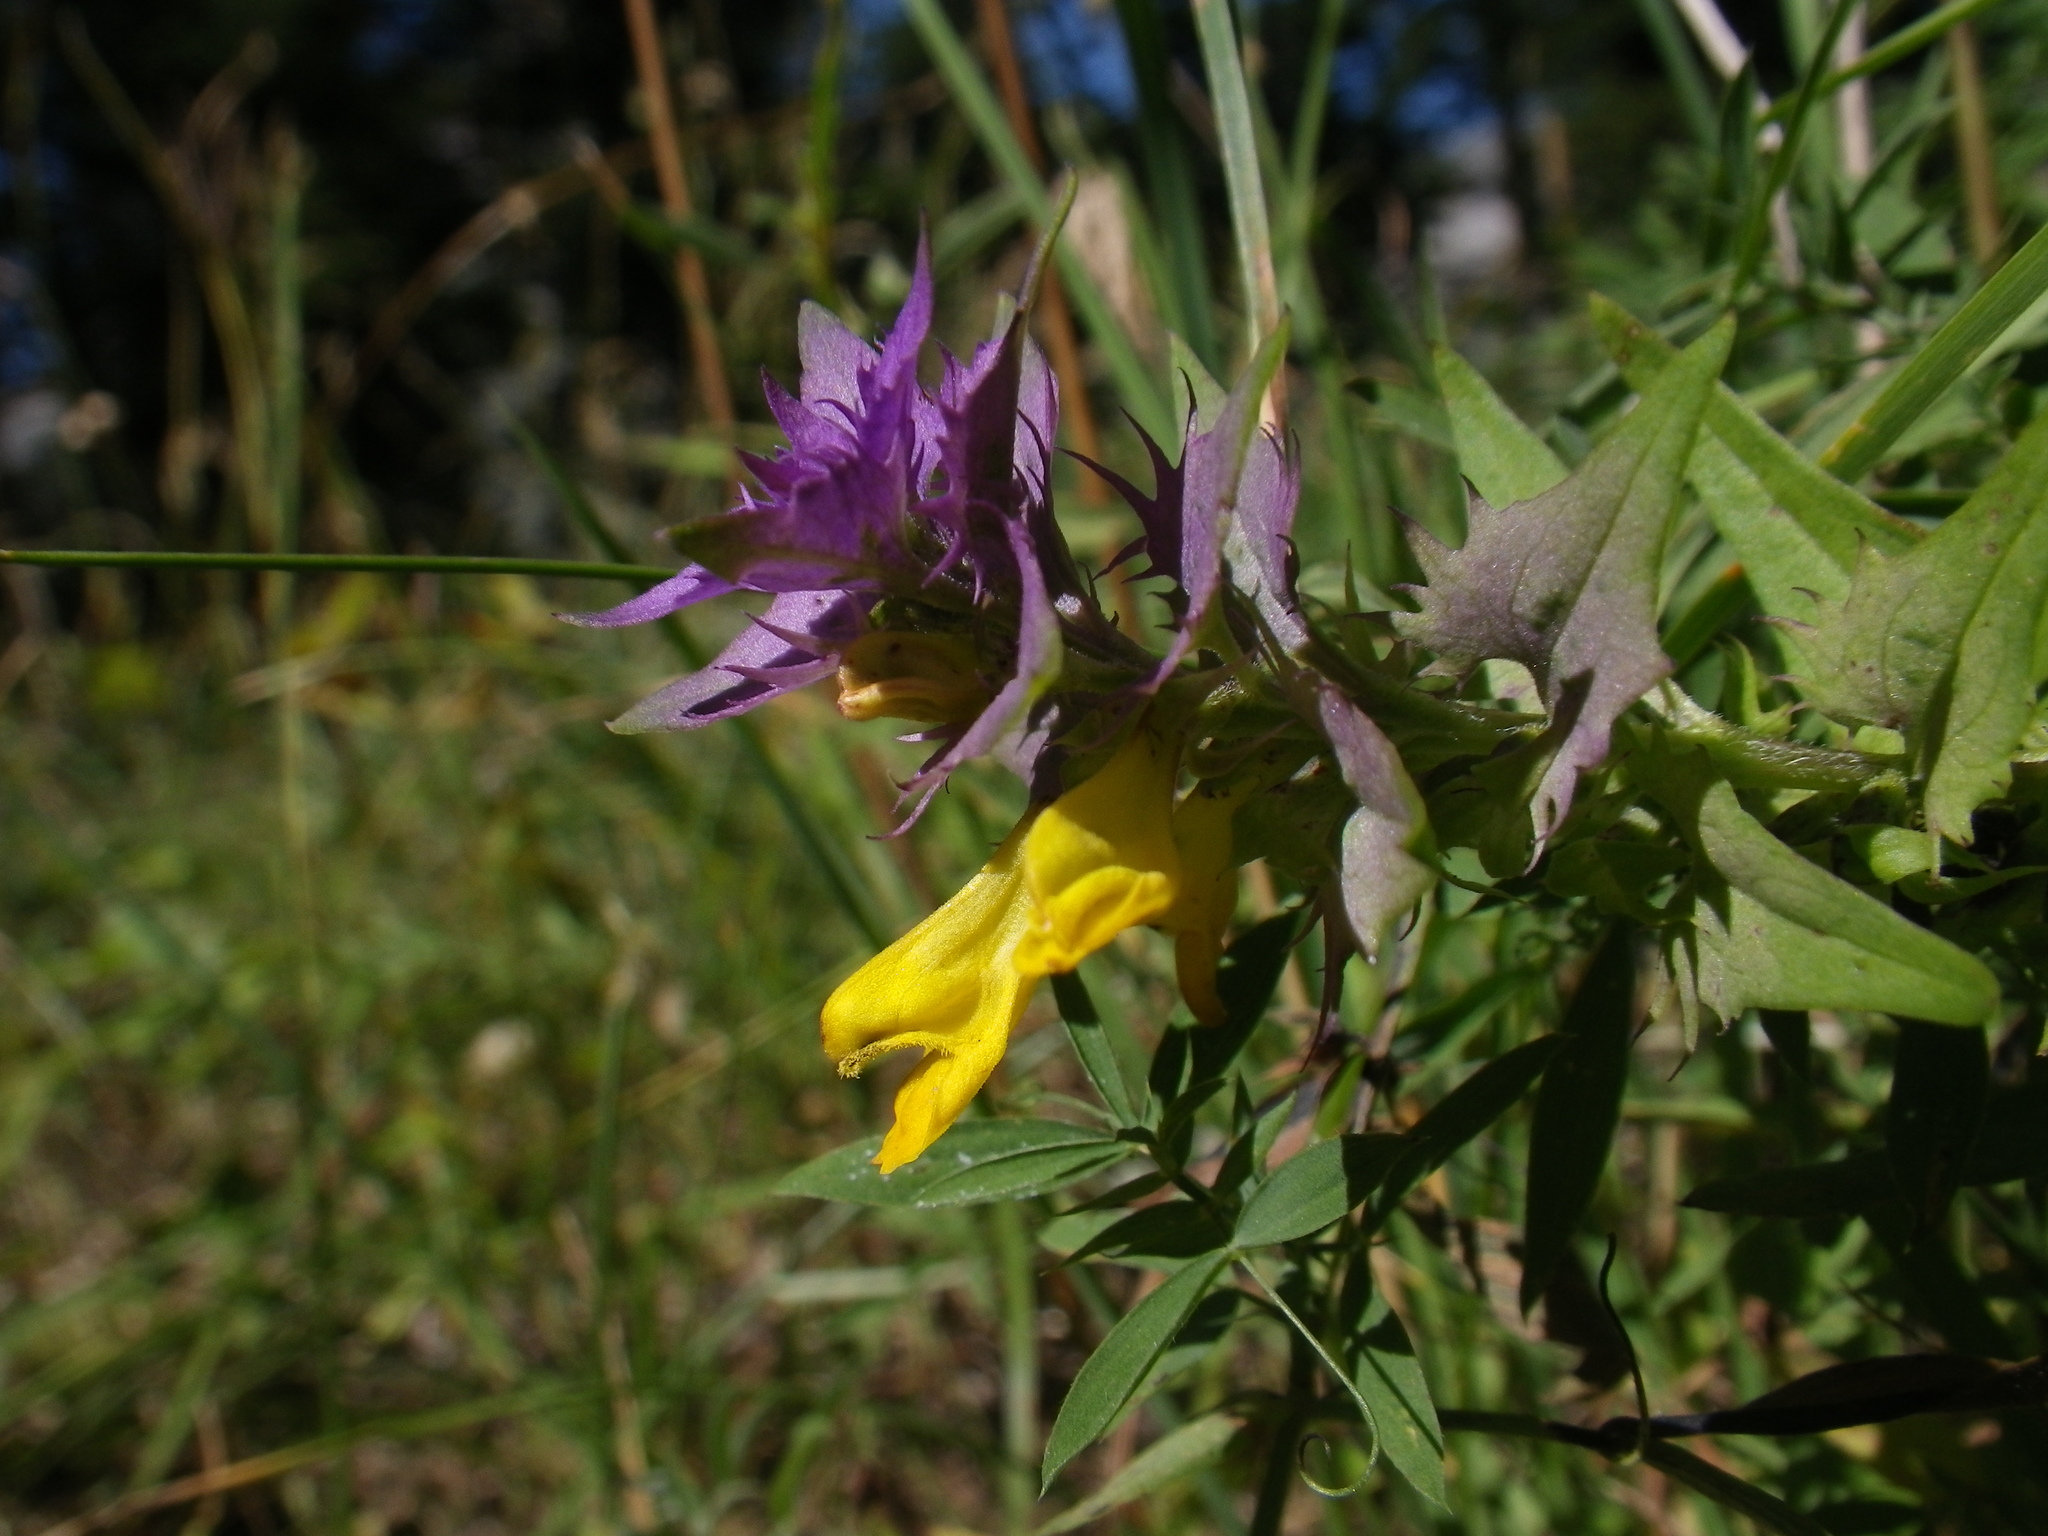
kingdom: Plantae
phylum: Tracheophyta
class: Magnoliopsida
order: Lamiales
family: Orobanchaceae
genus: Melampyrum
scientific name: Melampyrum catalaunicum
